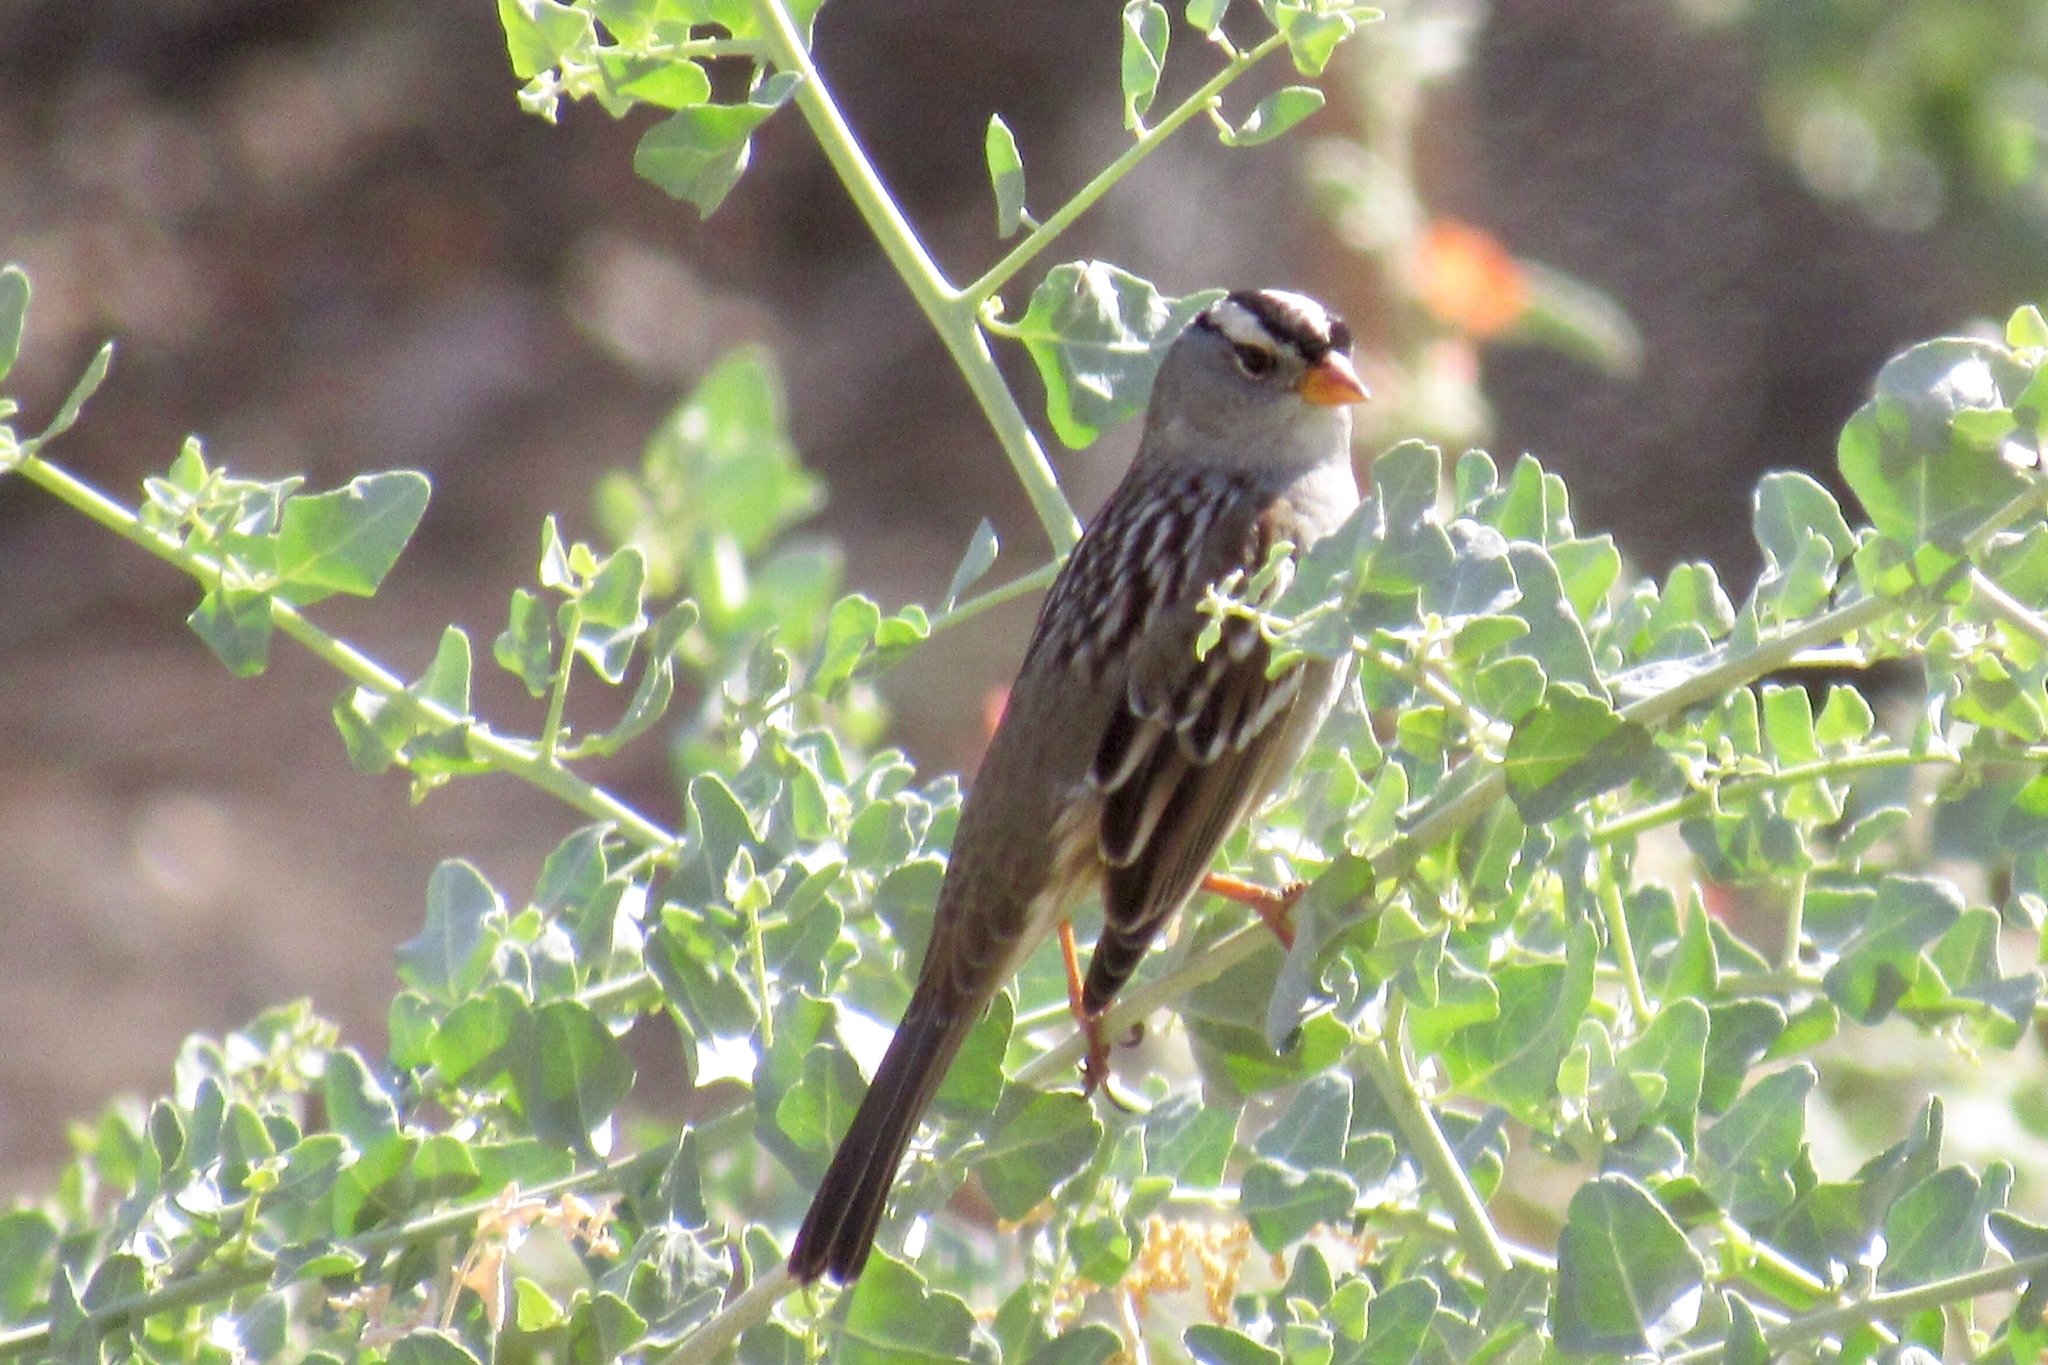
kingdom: Animalia
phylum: Chordata
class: Aves
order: Passeriformes
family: Passerellidae
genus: Zonotrichia
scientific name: Zonotrichia leucophrys
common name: White-crowned sparrow
